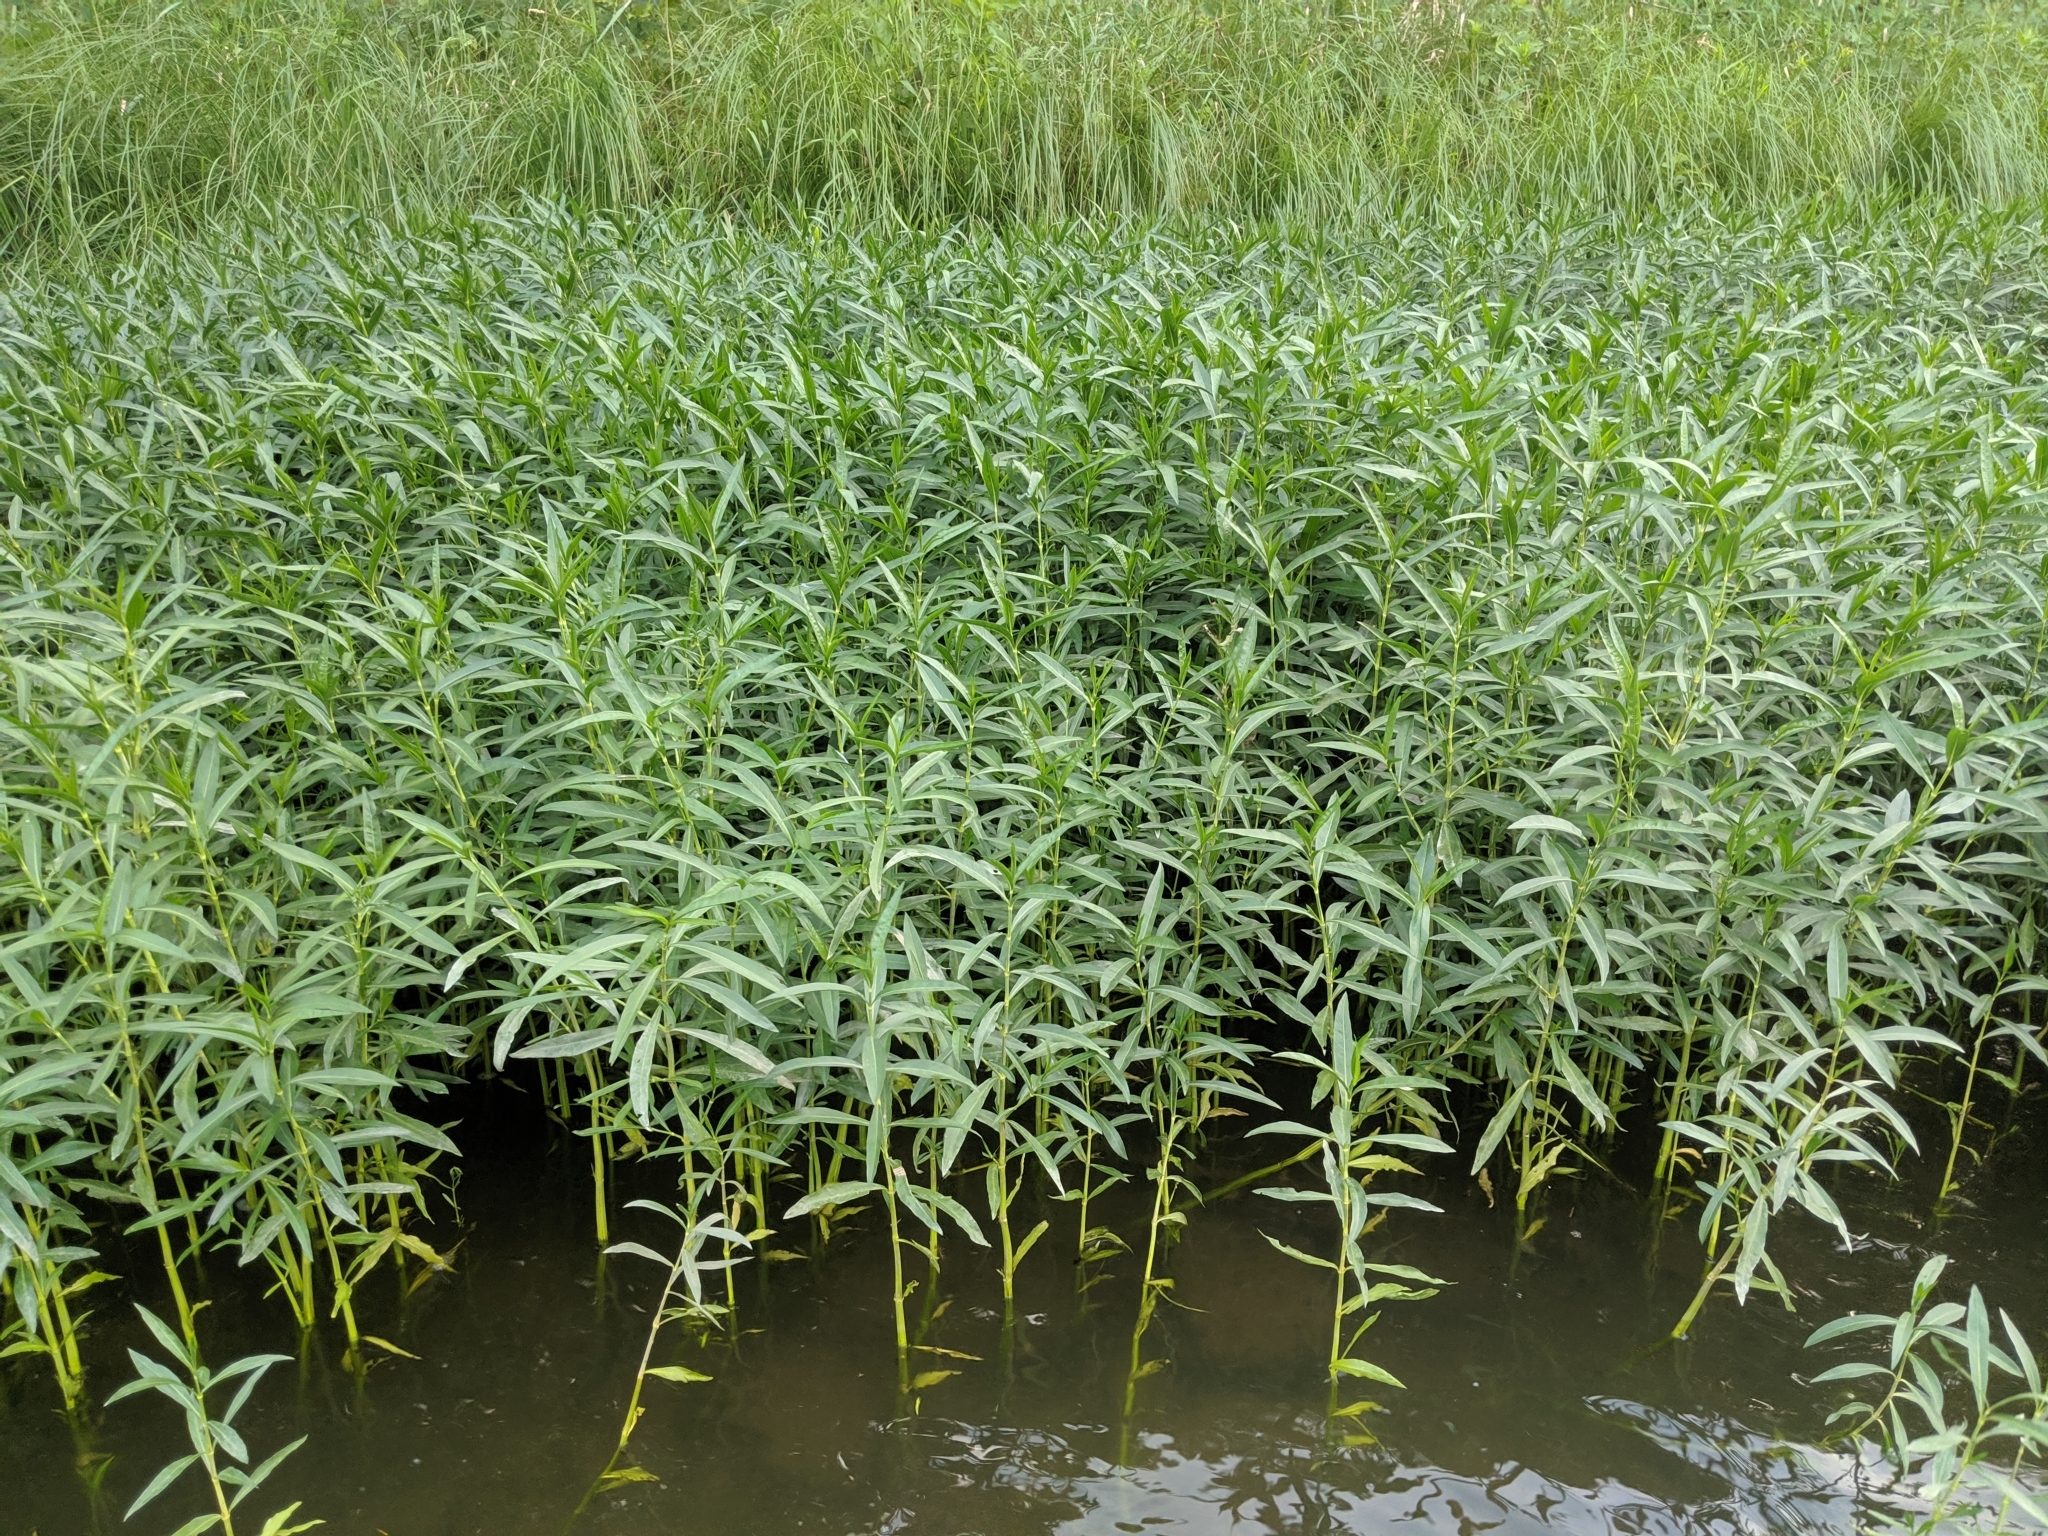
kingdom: Plantae
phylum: Tracheophyta
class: Magnoliopsida
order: Lamiales
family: Acanthaceae
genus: Dianthera
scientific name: Dianthera americana
